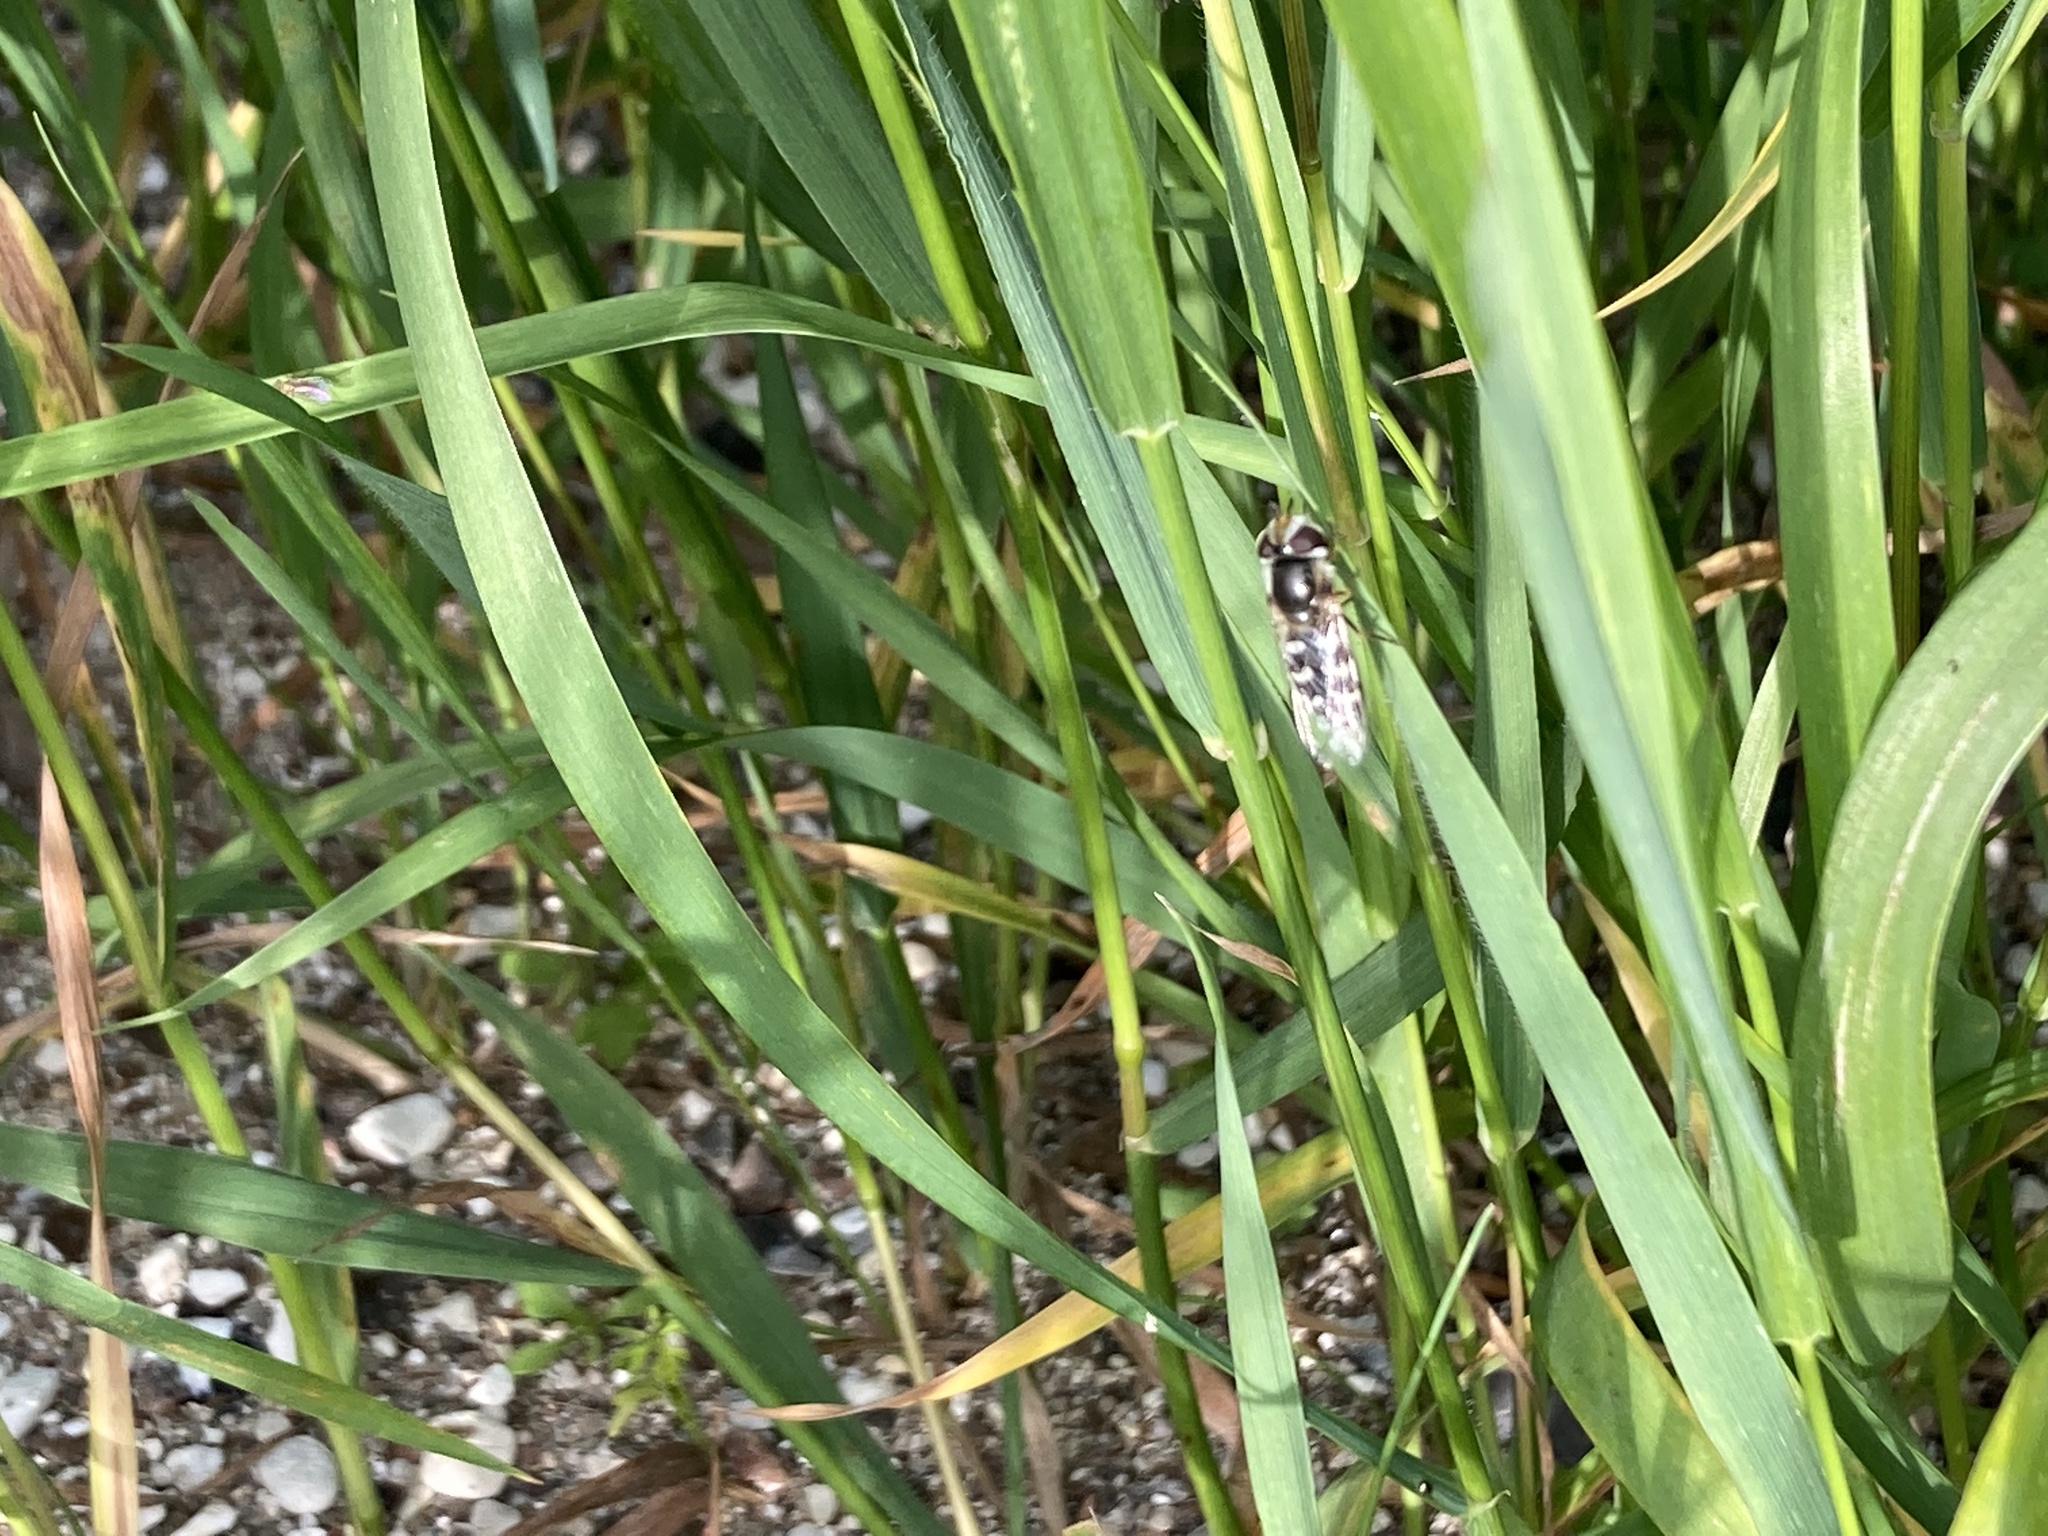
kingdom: Animalia
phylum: Arthropoda
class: Insecta
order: Diptera
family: Syrphidae
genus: Scaeva
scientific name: Scaeva pyrastri
